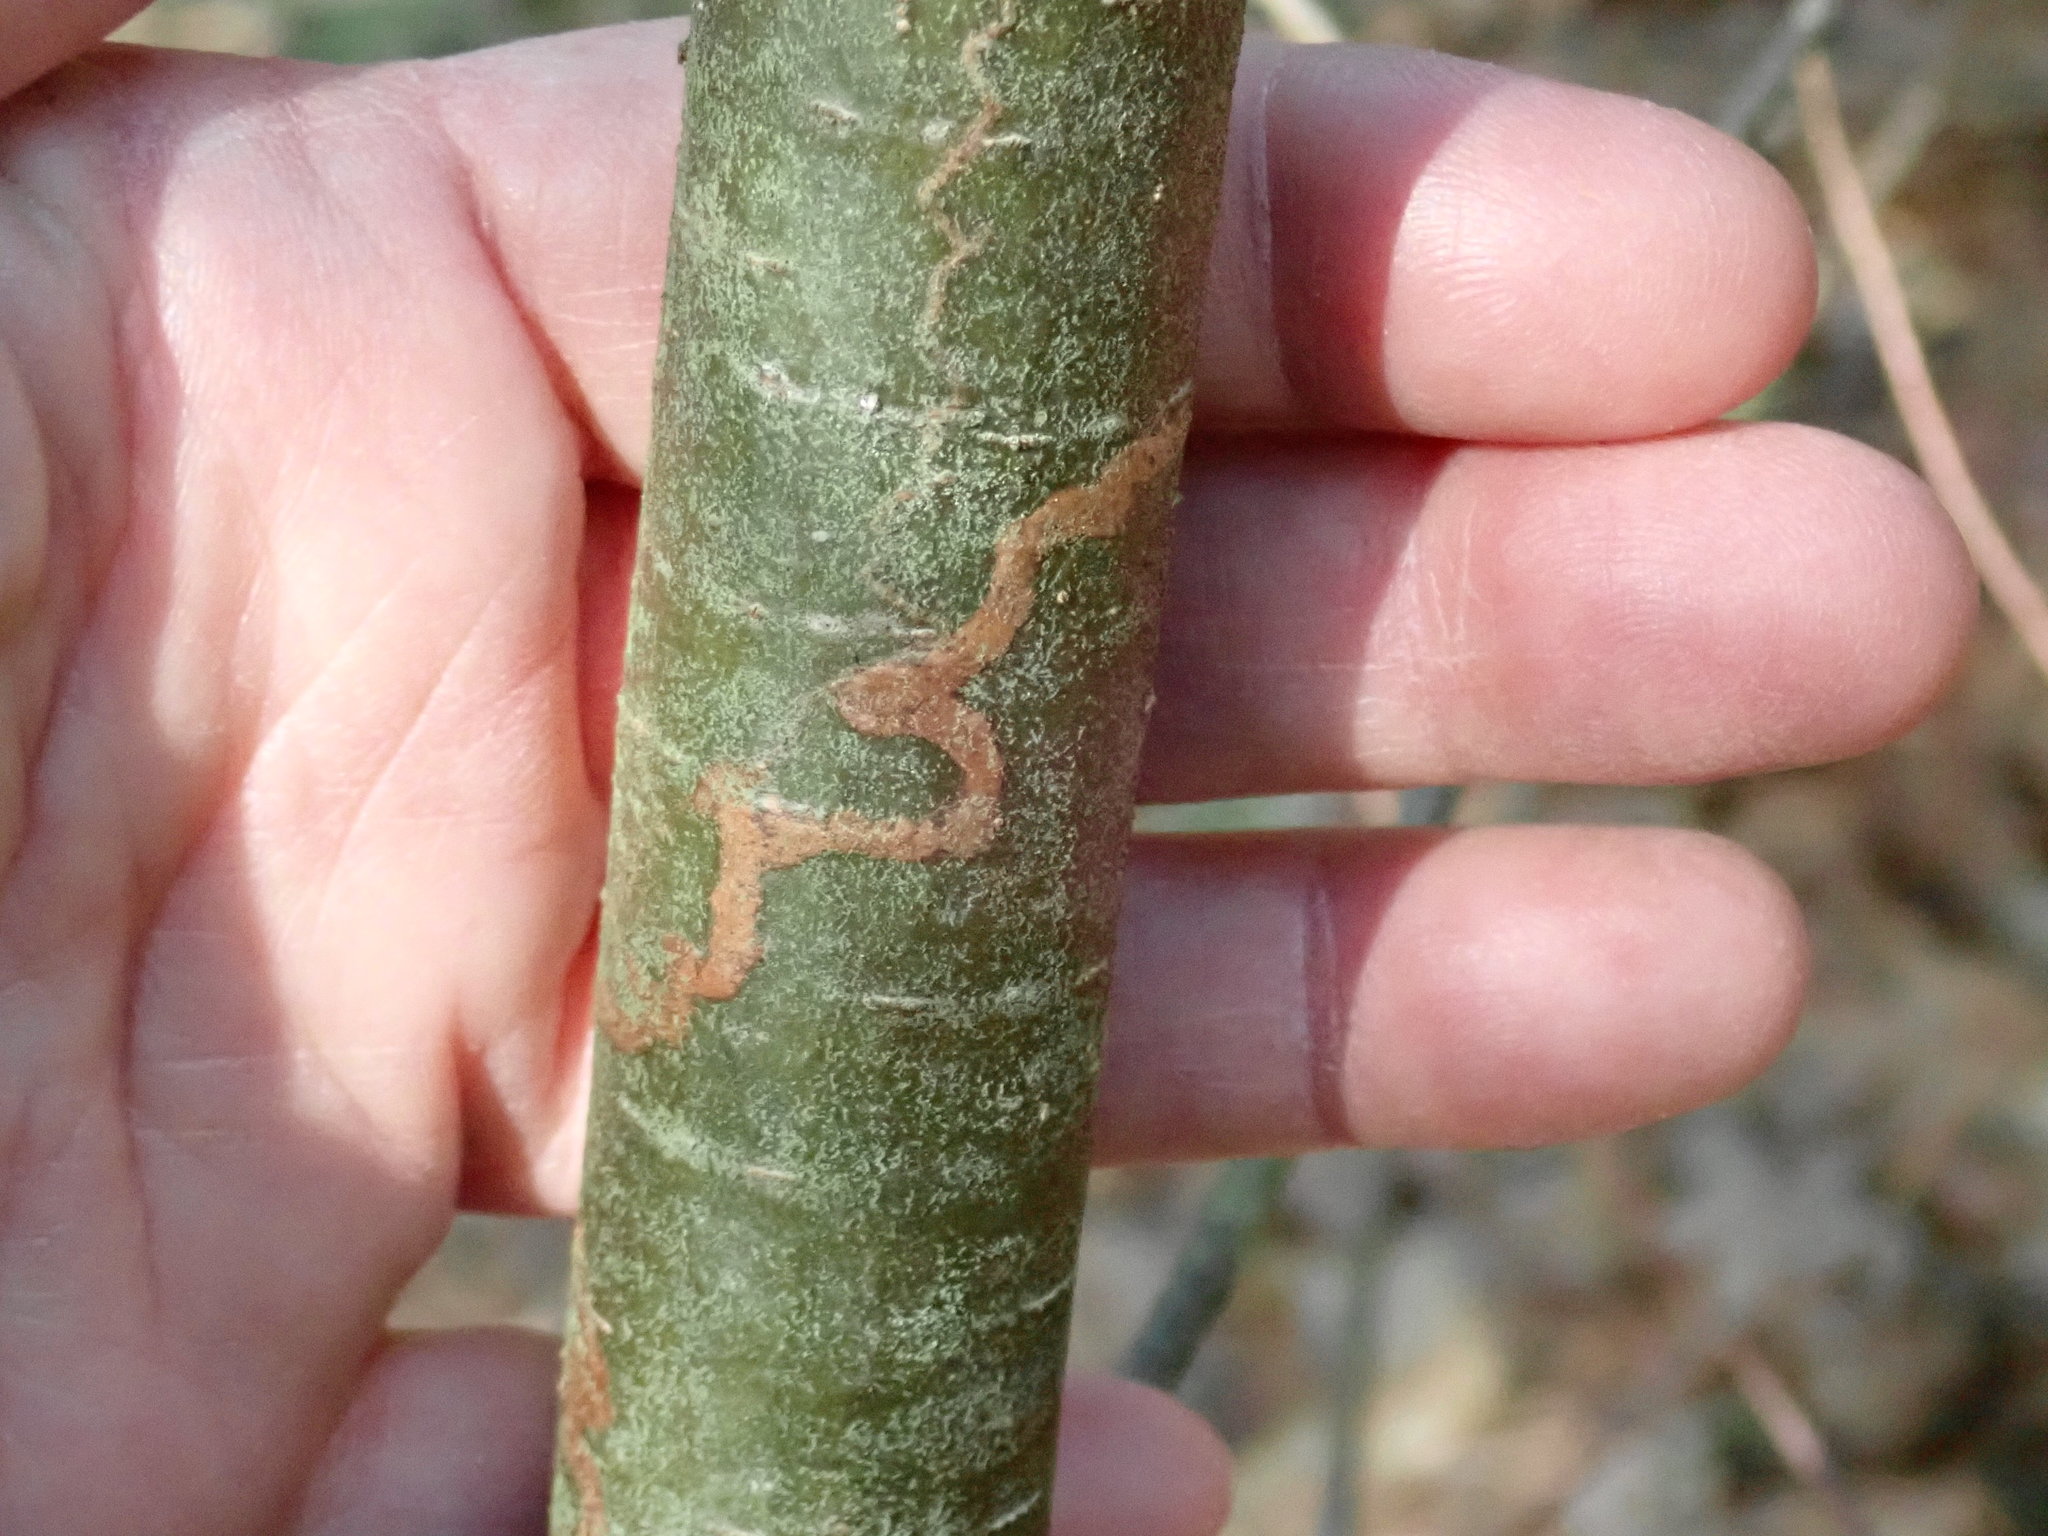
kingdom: Animalia
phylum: Arthropoda
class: Insecta
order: Lepidoptera
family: Gracillariidae
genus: Marmara
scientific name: Marmara fasciella
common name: White pine barkminer moth
